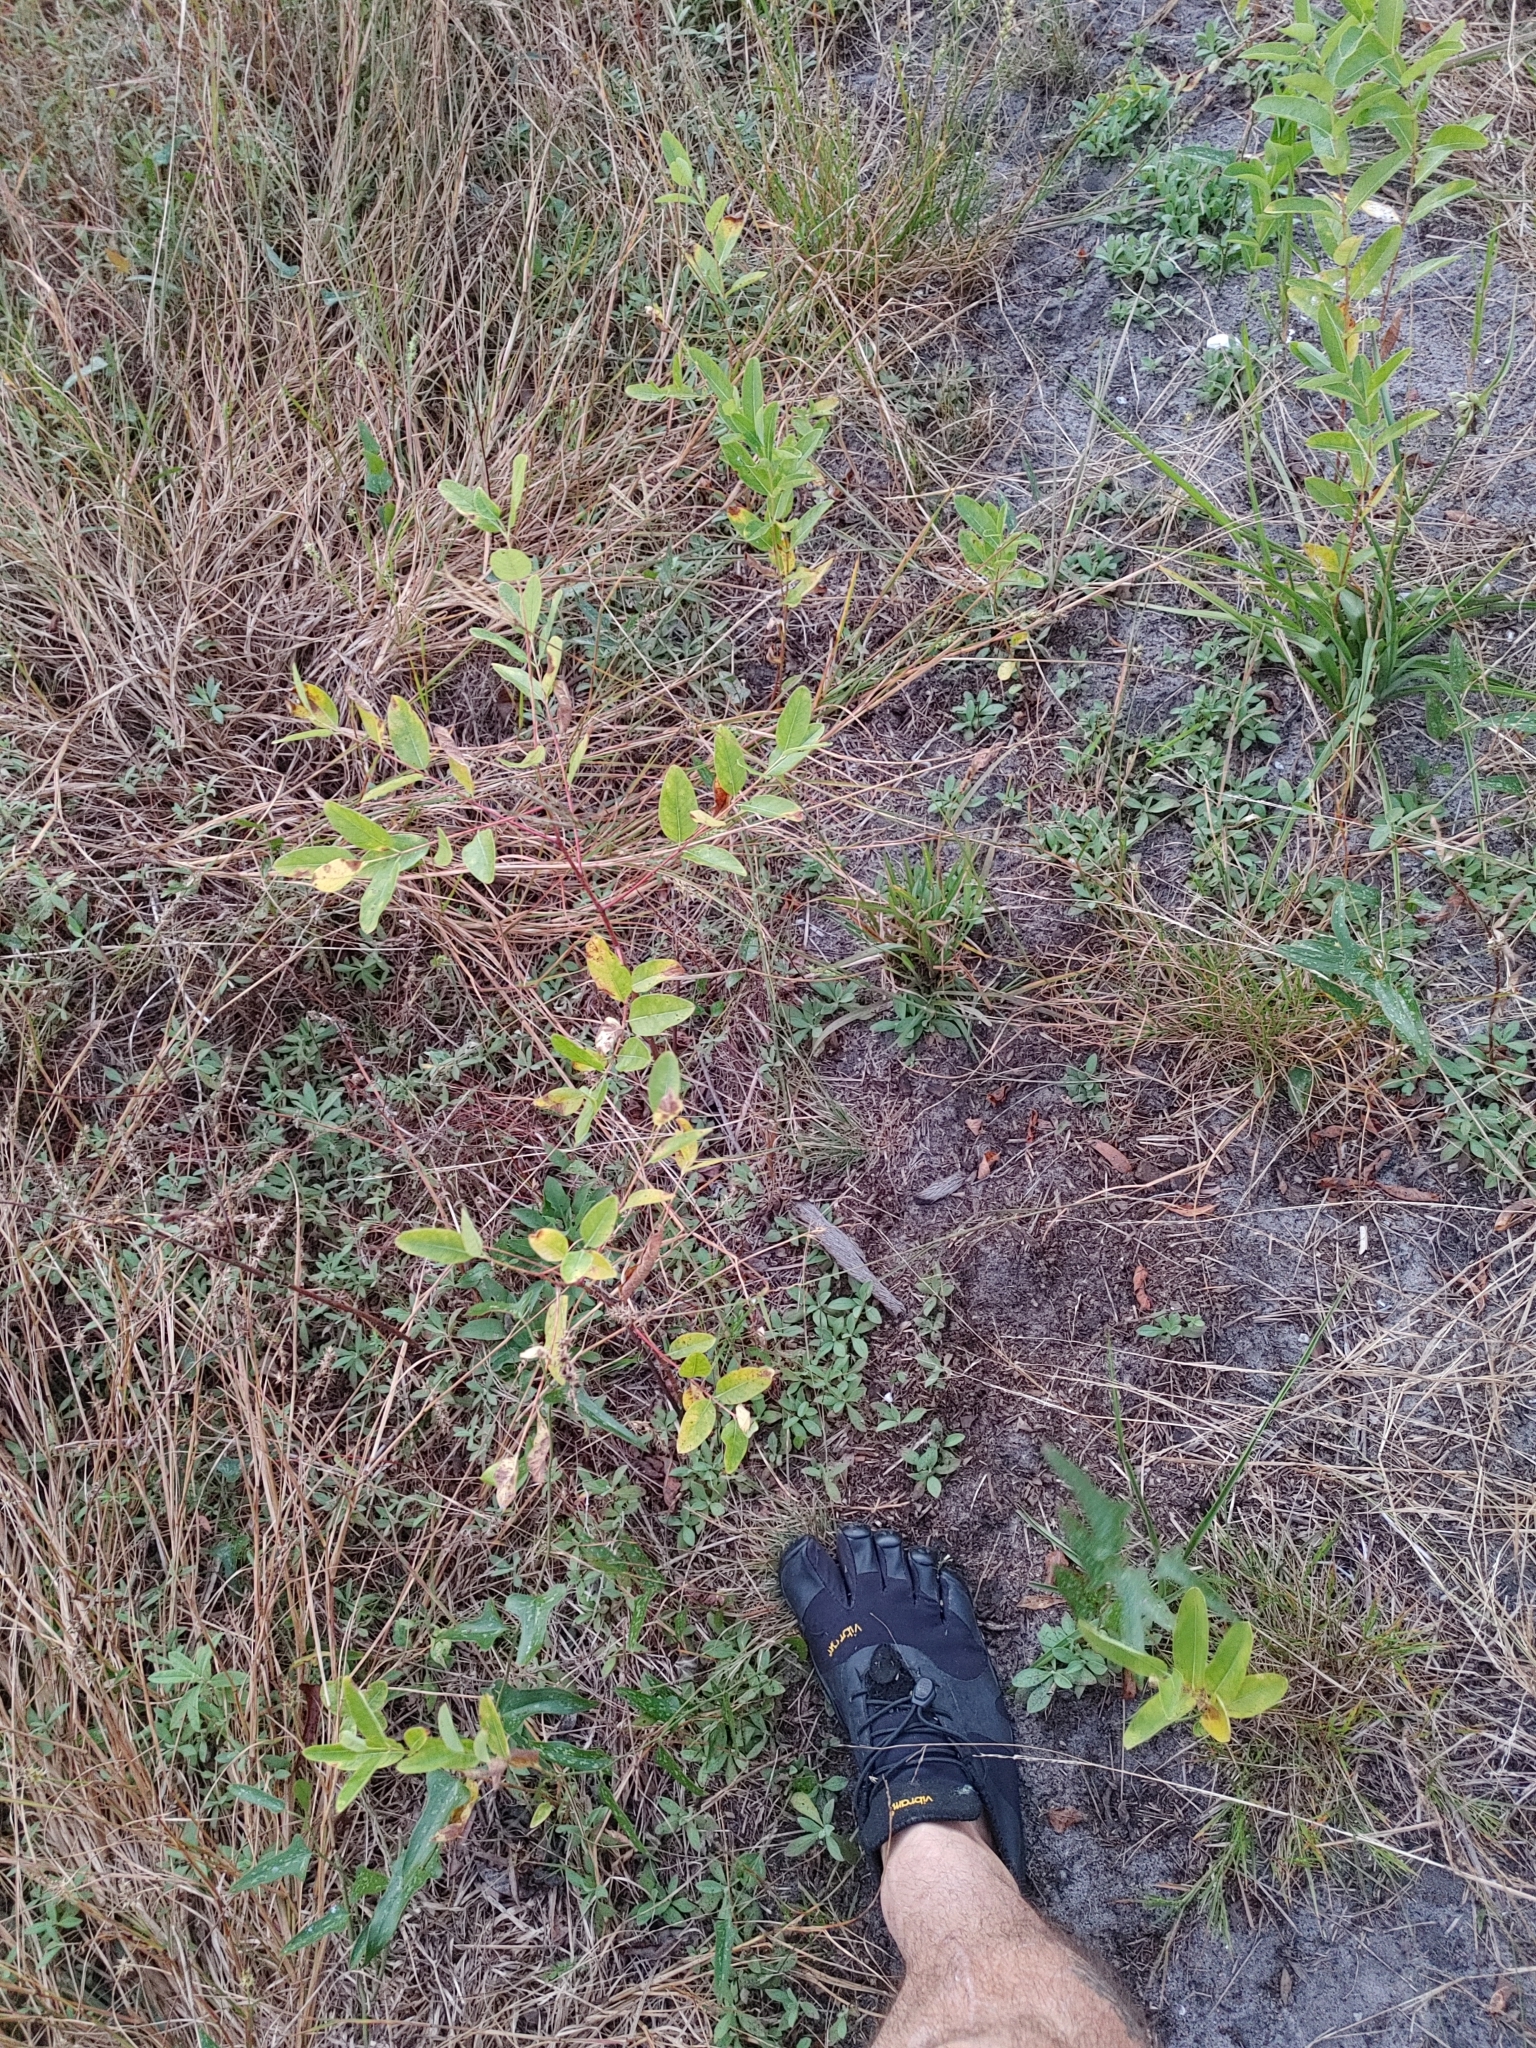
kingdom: Plantae
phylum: Tracheophyta
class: Magnoliopsida
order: Gentianales
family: Apocynaceae
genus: Apocynum
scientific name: Apocynum cannabinum
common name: Hemp dogbane
